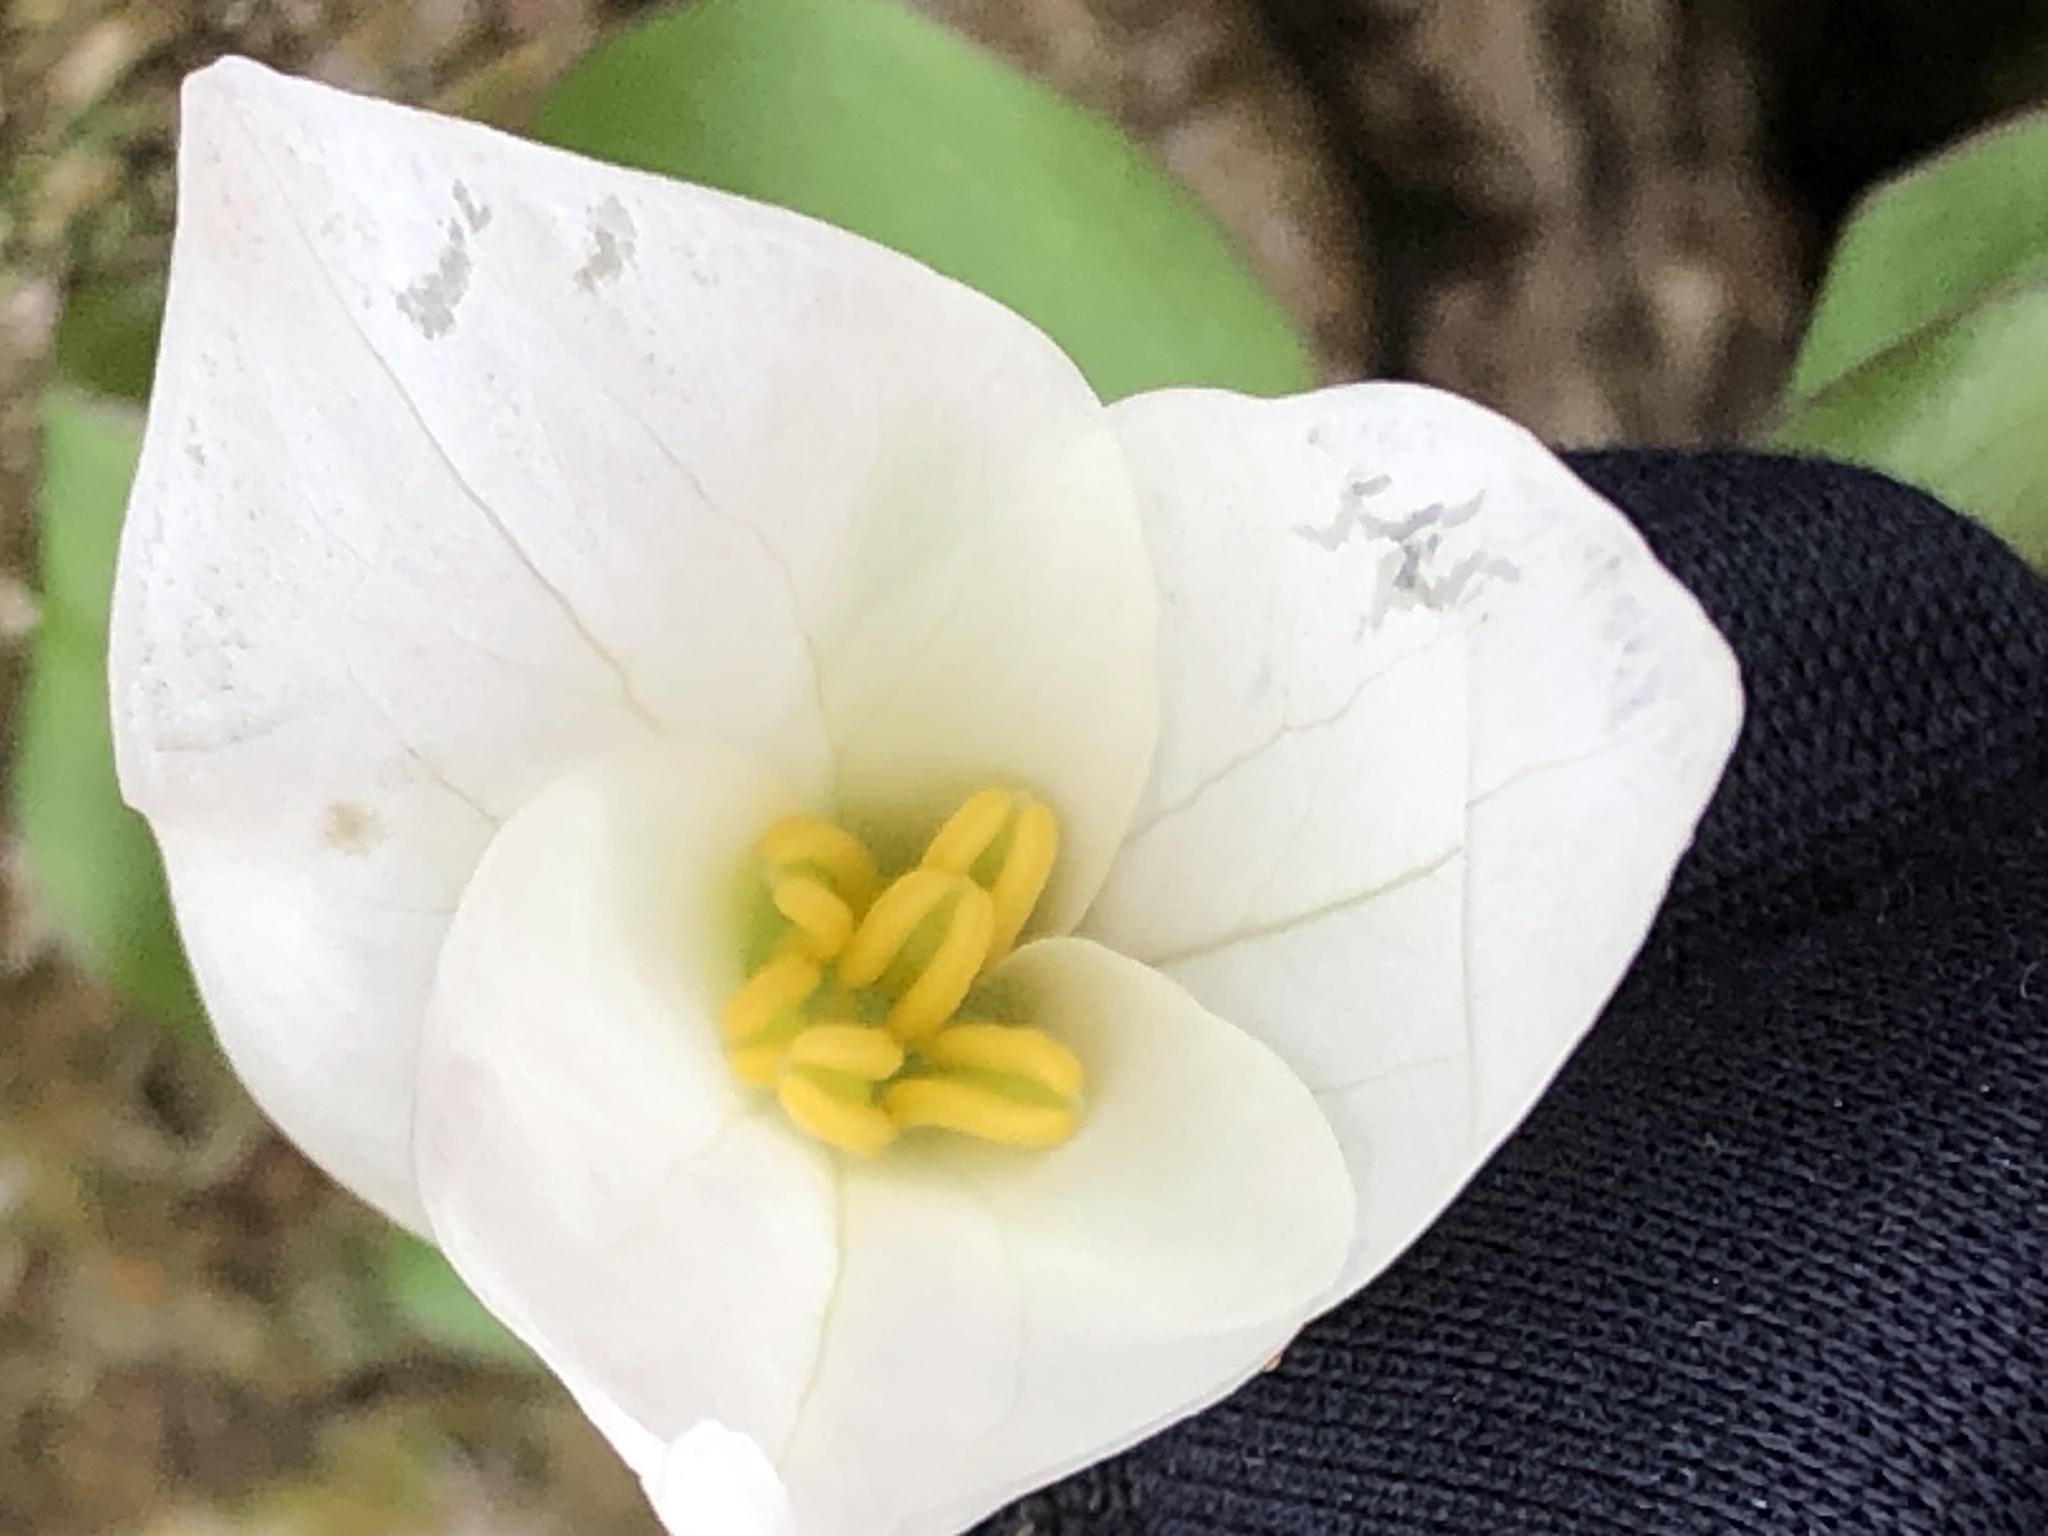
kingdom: Plantae
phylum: Tracheophyta
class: Liliopsida
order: Liliales
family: Melanthiaceae
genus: Trillium
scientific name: Trillium grandiflorum
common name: Great white trillium
